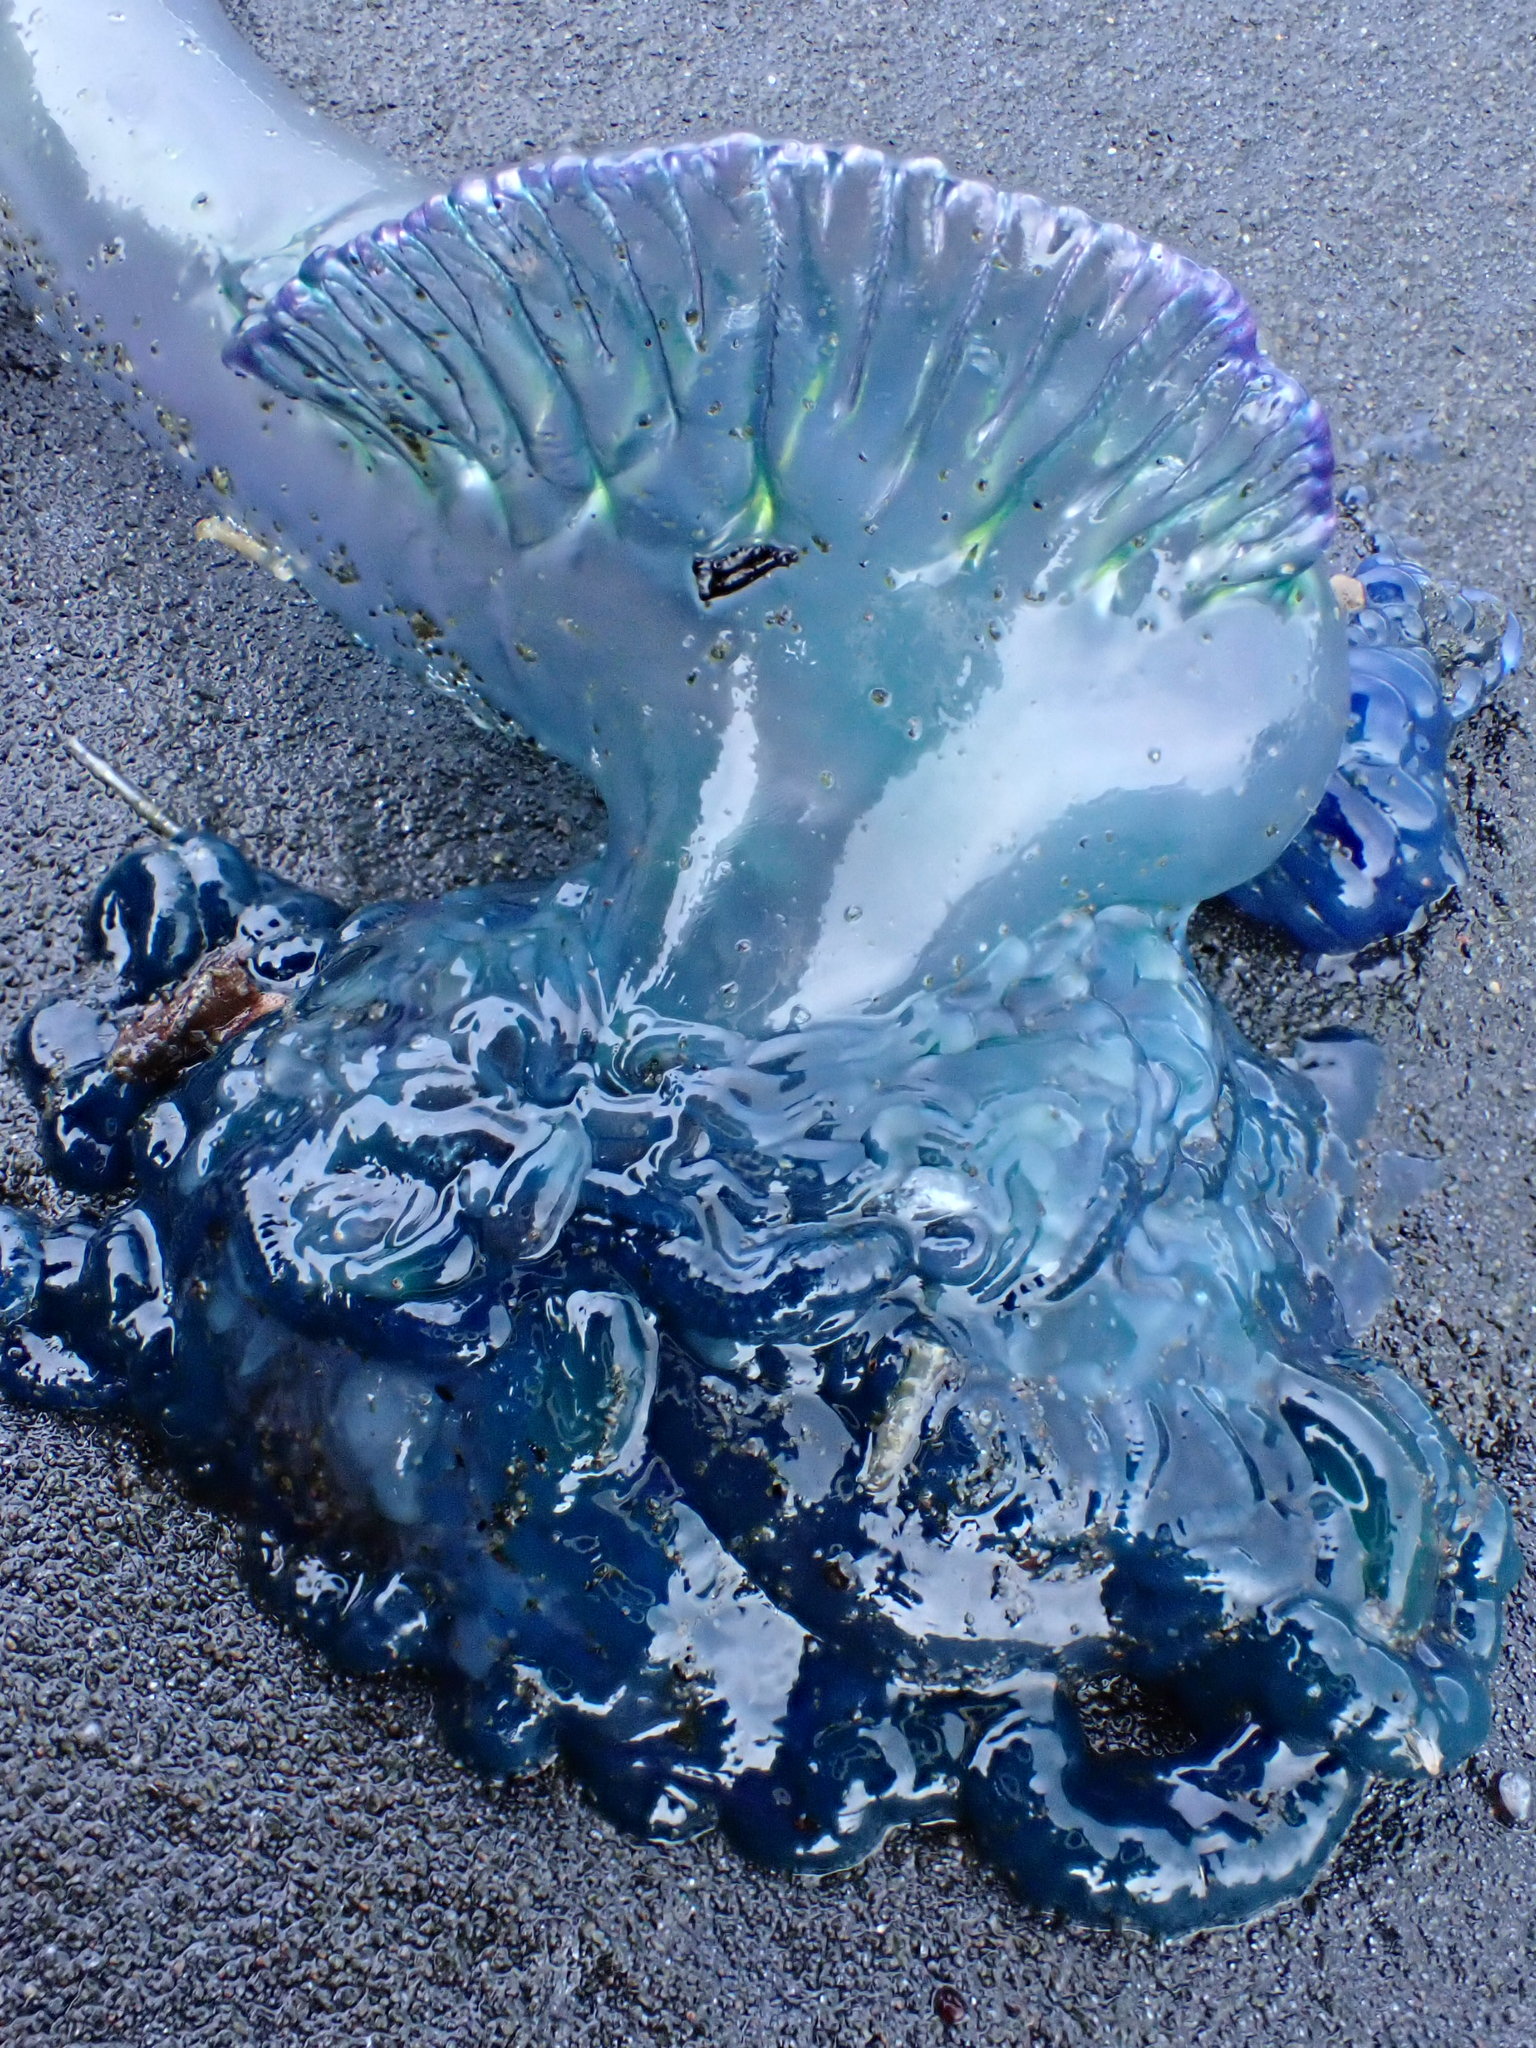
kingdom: Animalia
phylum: Cnidaria
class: Hydrozoa
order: Siphonophorae
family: Physaliidae
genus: Physalia
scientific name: Physalia physalis
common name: Portuguese man-of-war
